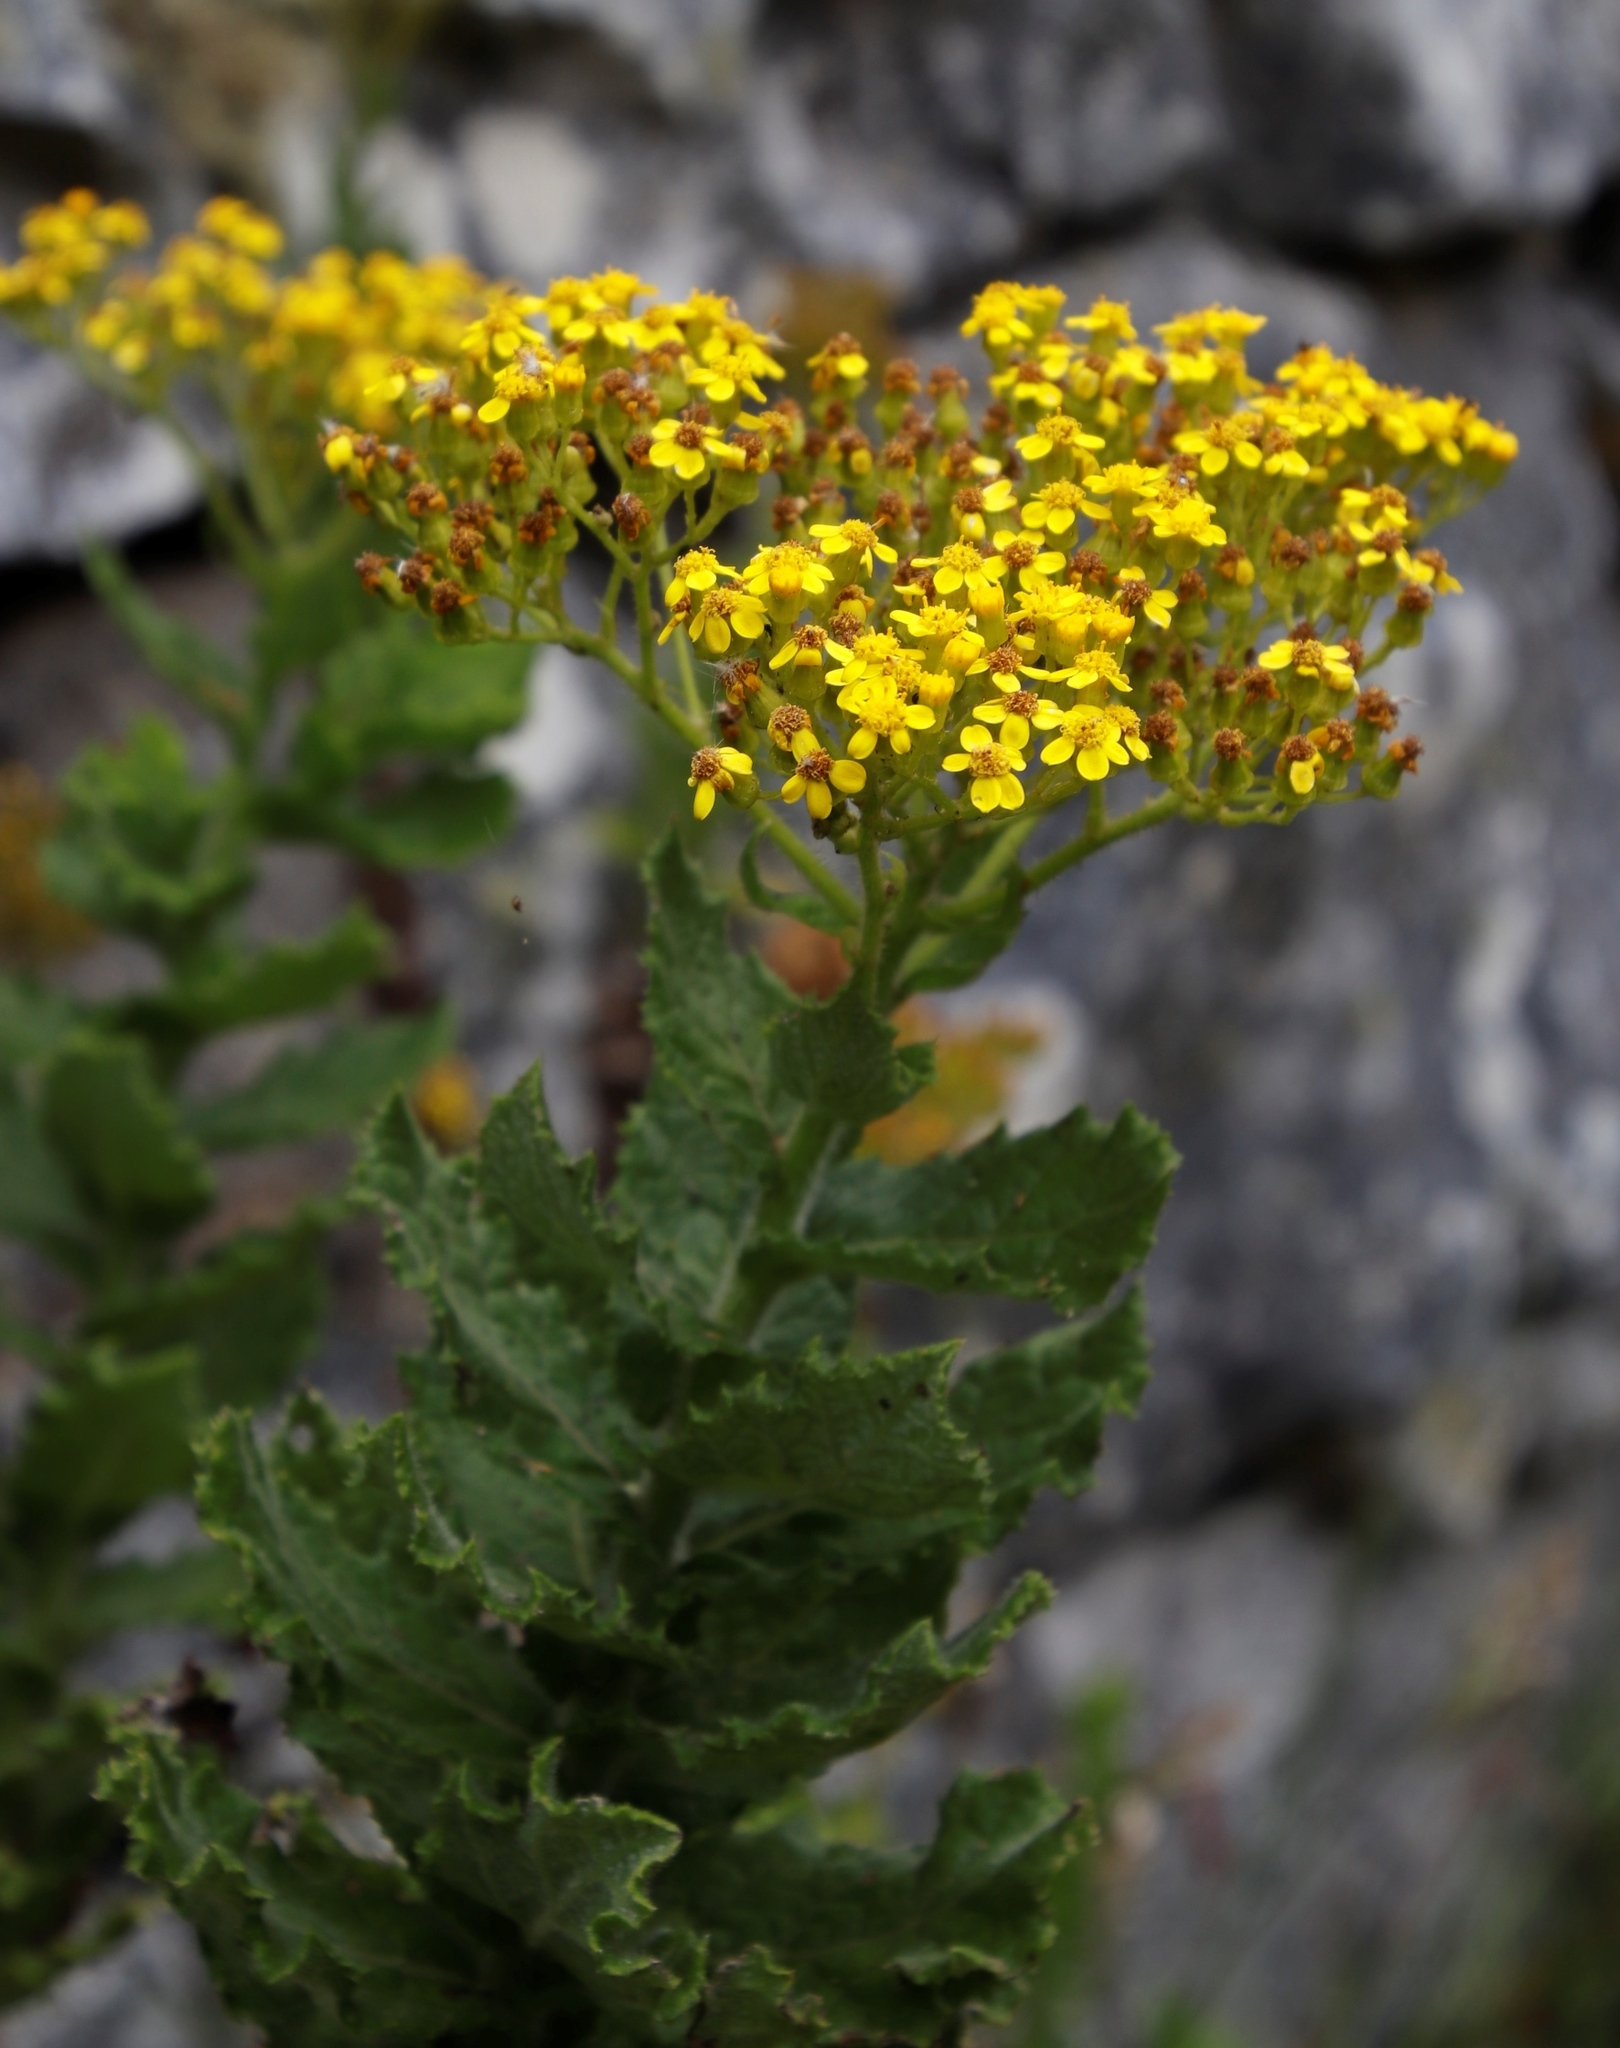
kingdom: Plantae
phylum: Tracheophyta
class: Magnoliopsida
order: Asterales
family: Asteraceae
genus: Senecio
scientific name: Senecio rigidus
